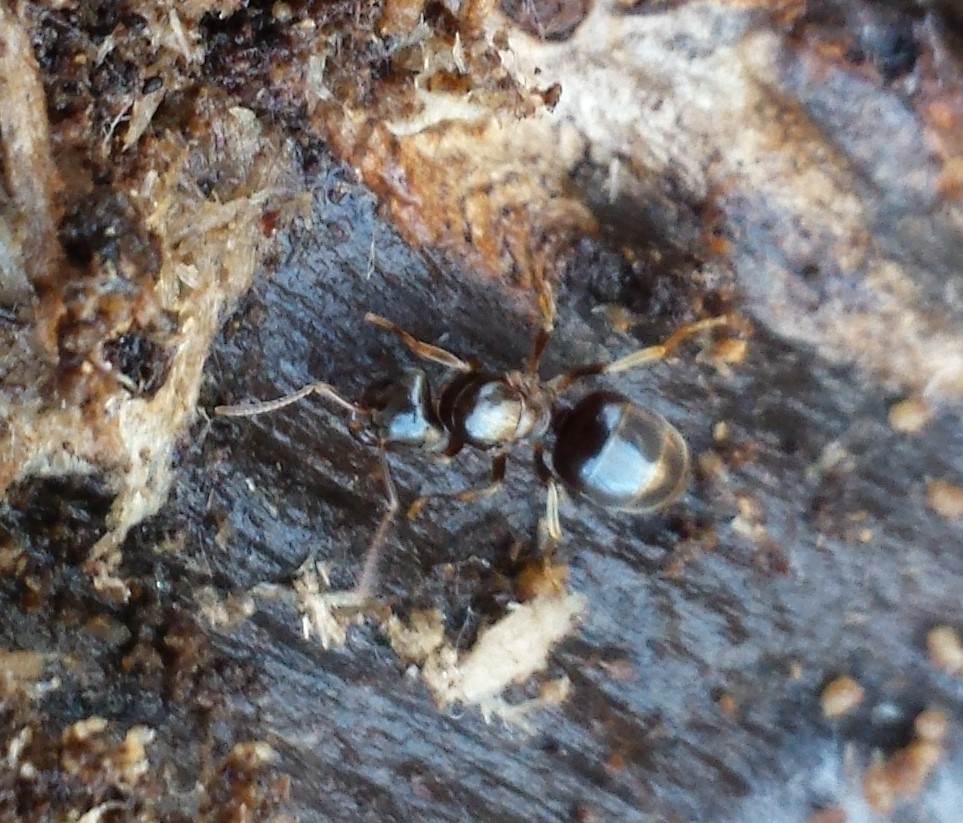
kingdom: Animalia
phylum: Arthropoda
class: Insecta
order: Hymenoptera
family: Formicidae
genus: Lasius
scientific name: Lasius aphidicola
